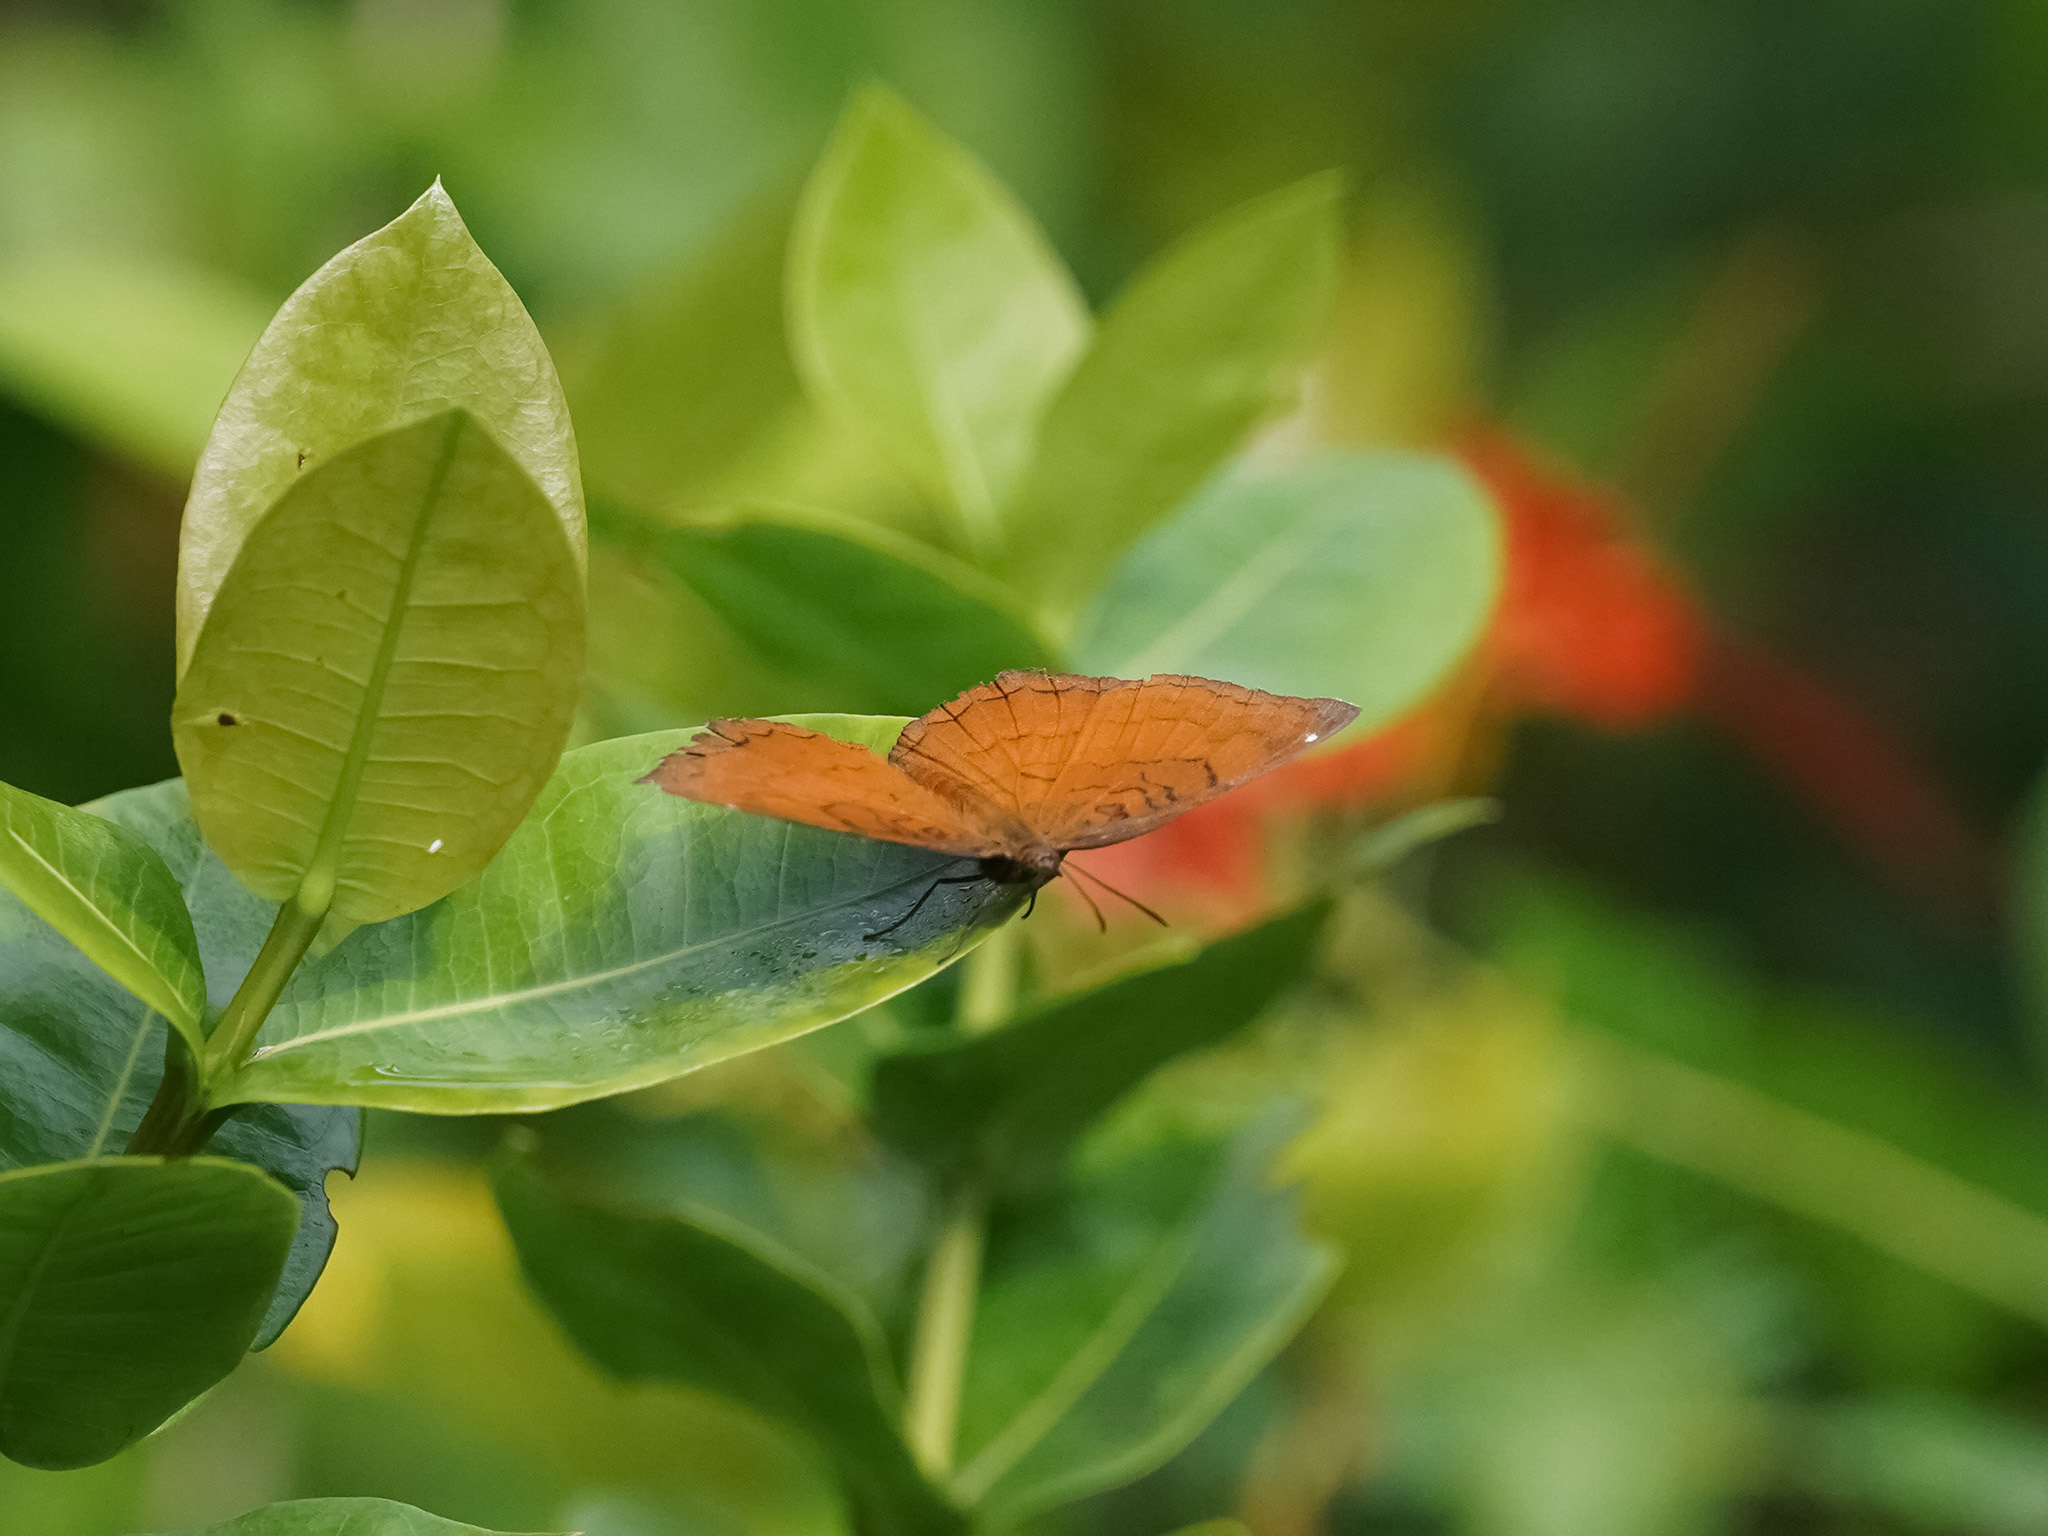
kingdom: Animalia
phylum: Arthropoda
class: Insecta
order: Lepidoptera
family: Nymphalidae
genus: Ariadne
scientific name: Ariadne ariadne
